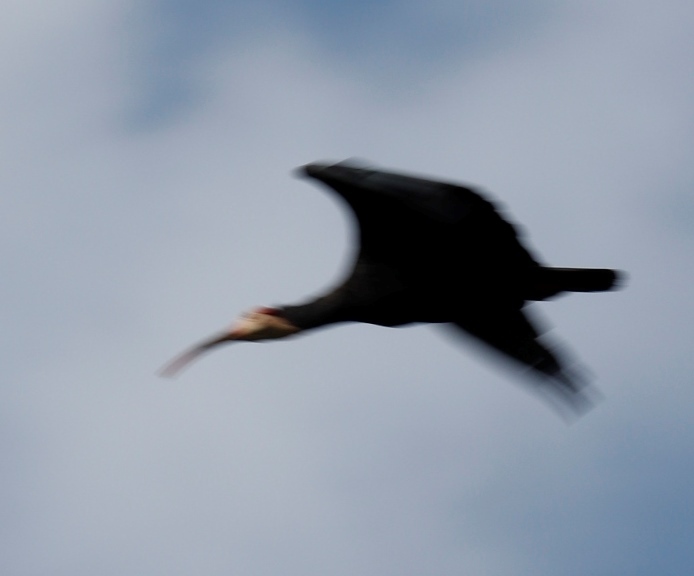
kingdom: Animalia
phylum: Chordata
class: Aves
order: Pelecaniformes
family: Threskiornithidae
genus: Geronticus
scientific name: Geronticus calvus
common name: Southern bald ibis
